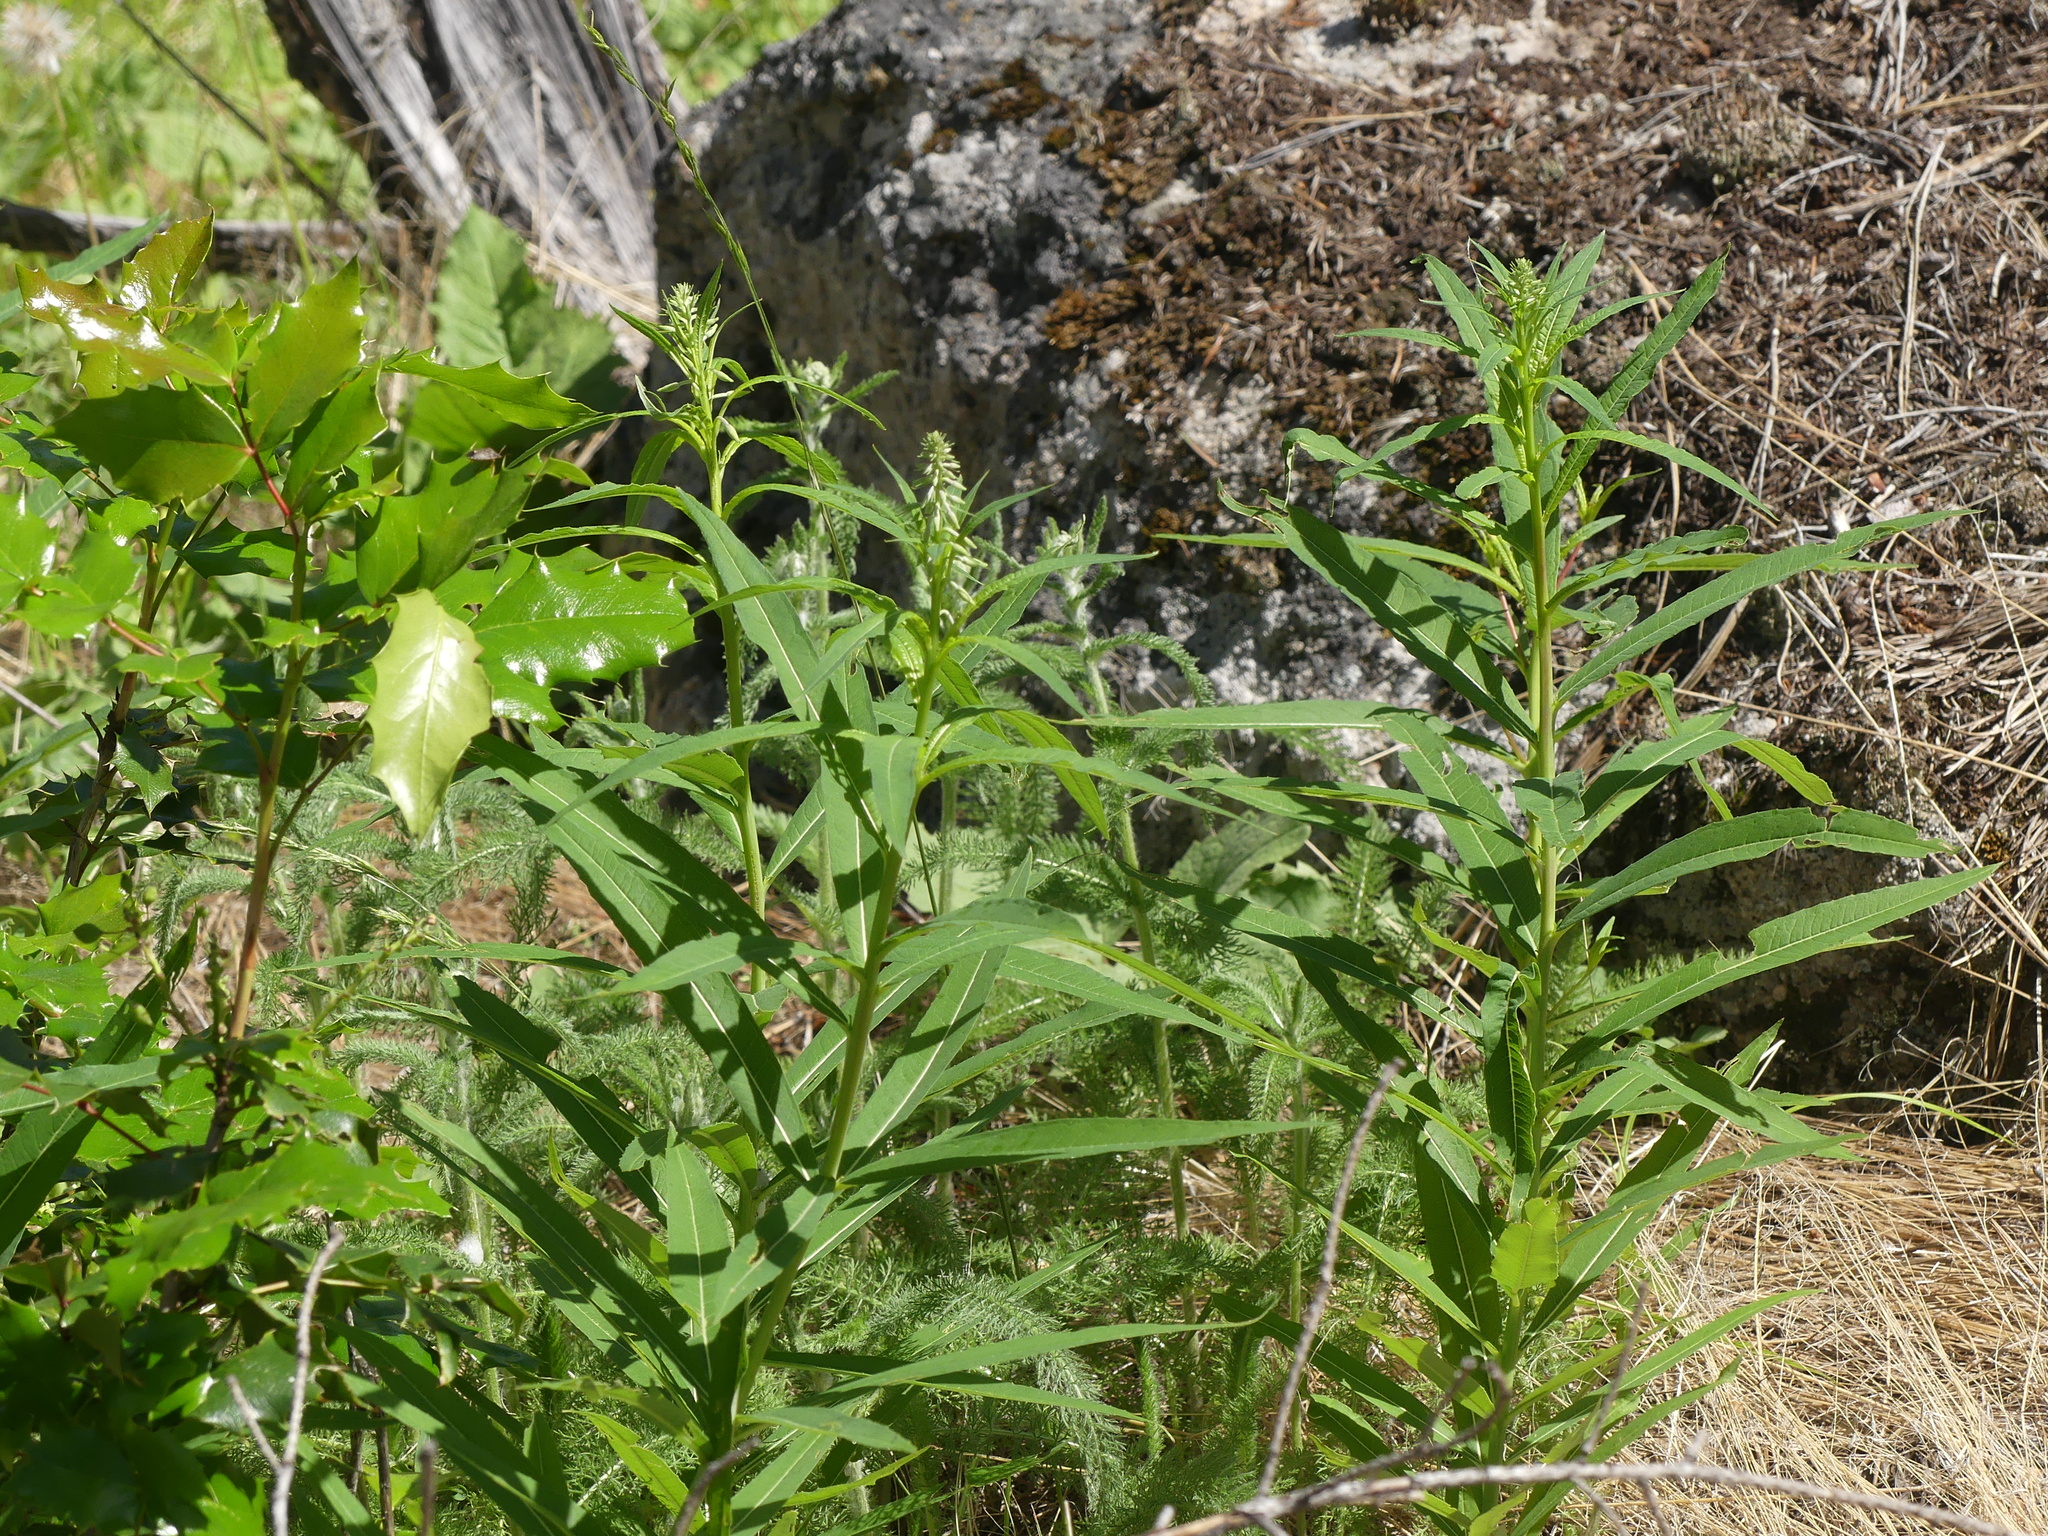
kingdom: Plantae
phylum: Tracheophyta
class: Magnoliopsida
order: Myrtales
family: Onagraceae
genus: Chamaenerion
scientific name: Chamaenerion angustifolium
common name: Fireweed
